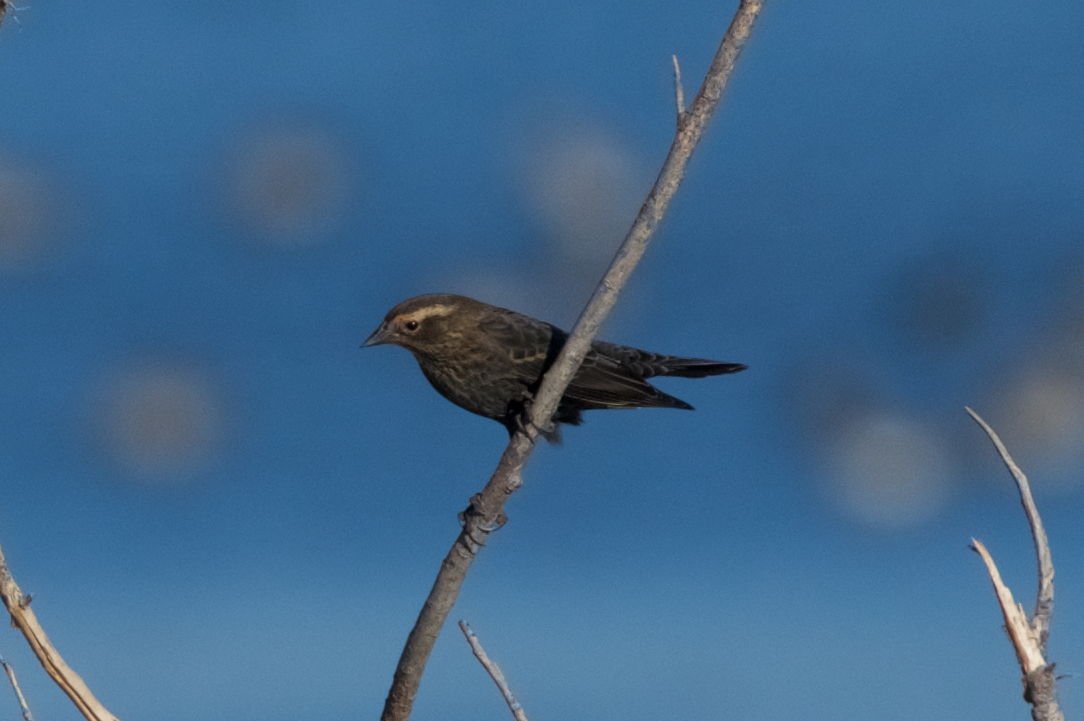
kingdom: Animalia
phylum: Chordata
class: Aves
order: Passeriformes
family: Icteridae
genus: Agelaius
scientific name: Agelaius phoeniceus
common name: Red-winged blackbird
